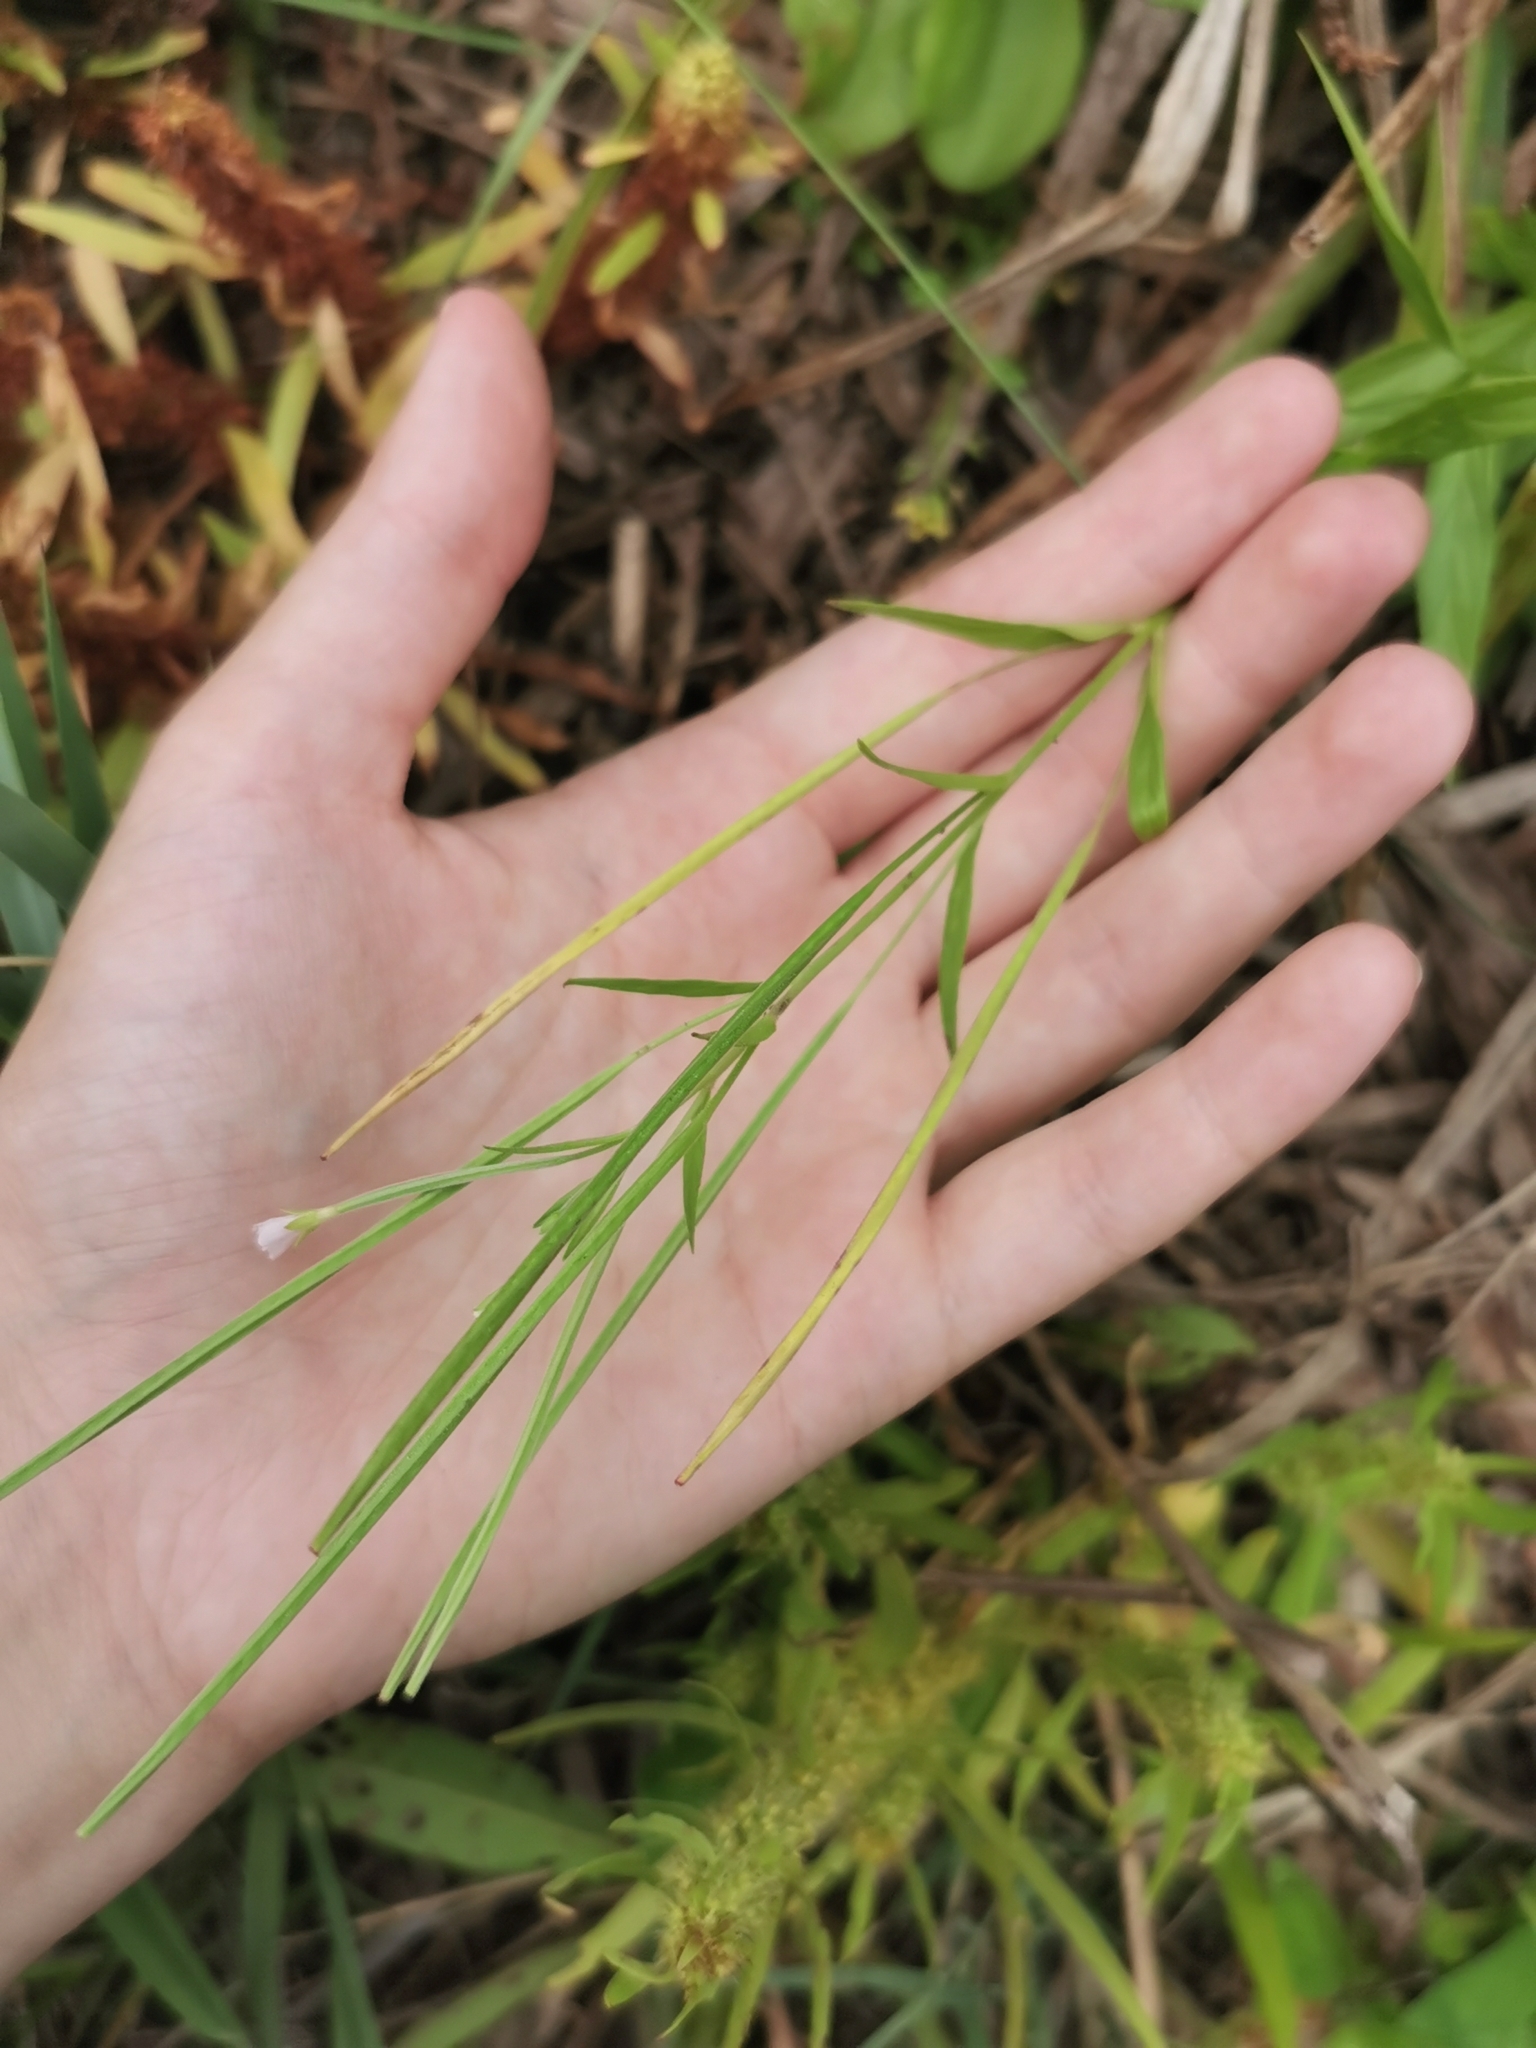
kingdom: Plantae
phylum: Tracheophyta
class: Magnoliopsida
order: Myrtales
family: Onagraceae
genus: Epilobium
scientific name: Epilobium palustre
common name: Marsh willowherb
